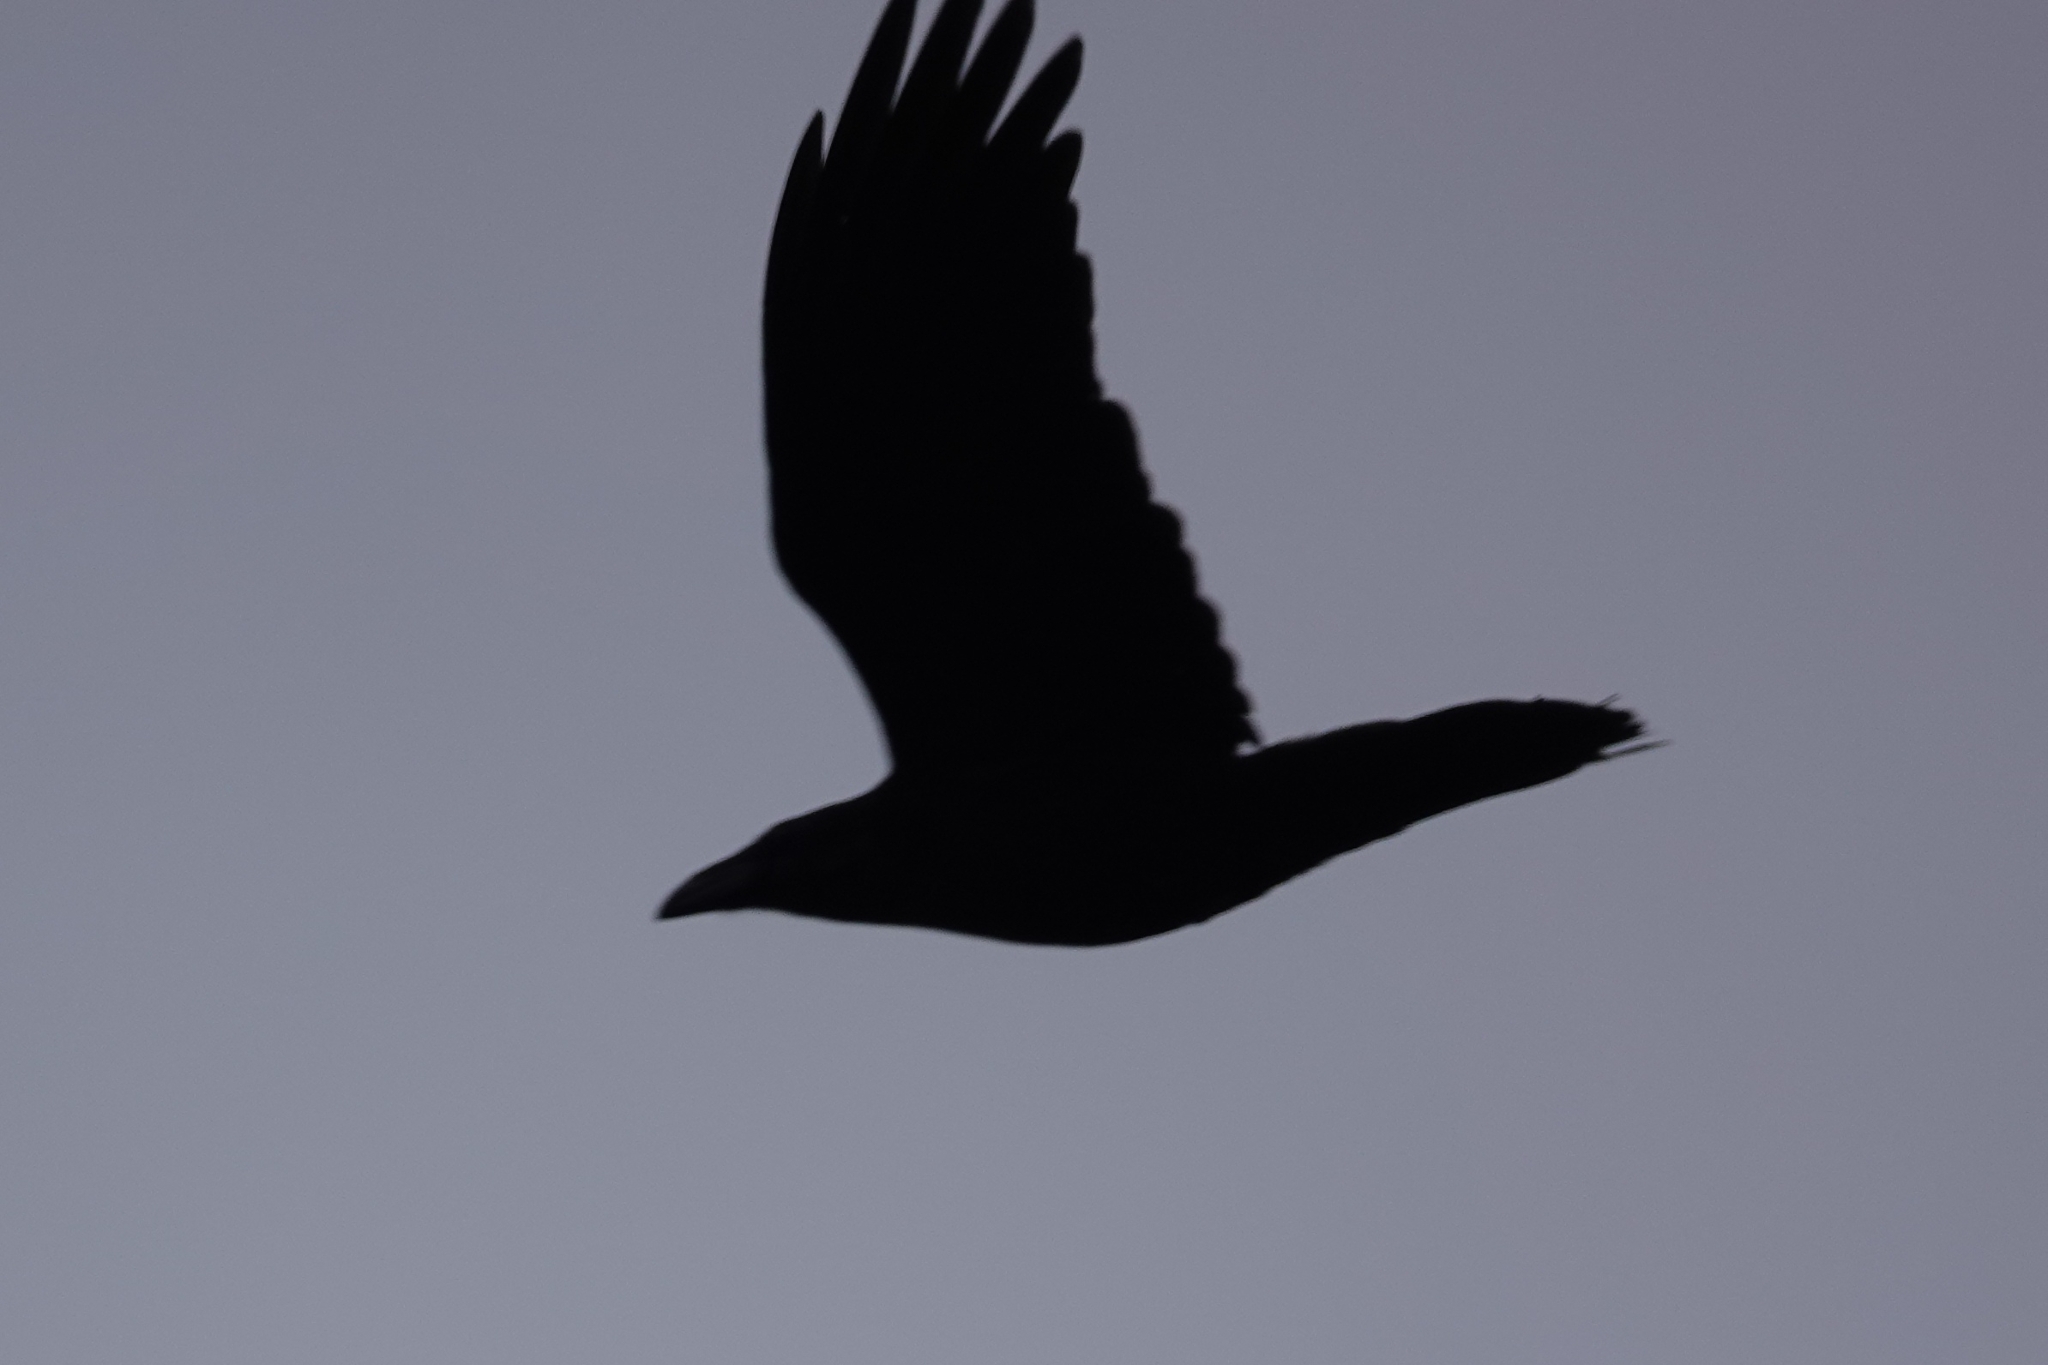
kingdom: Animalia
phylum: Chordata
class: Aves
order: Passeriformes
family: Corvidae
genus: Corvus
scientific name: Corvus corax
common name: Common raven
